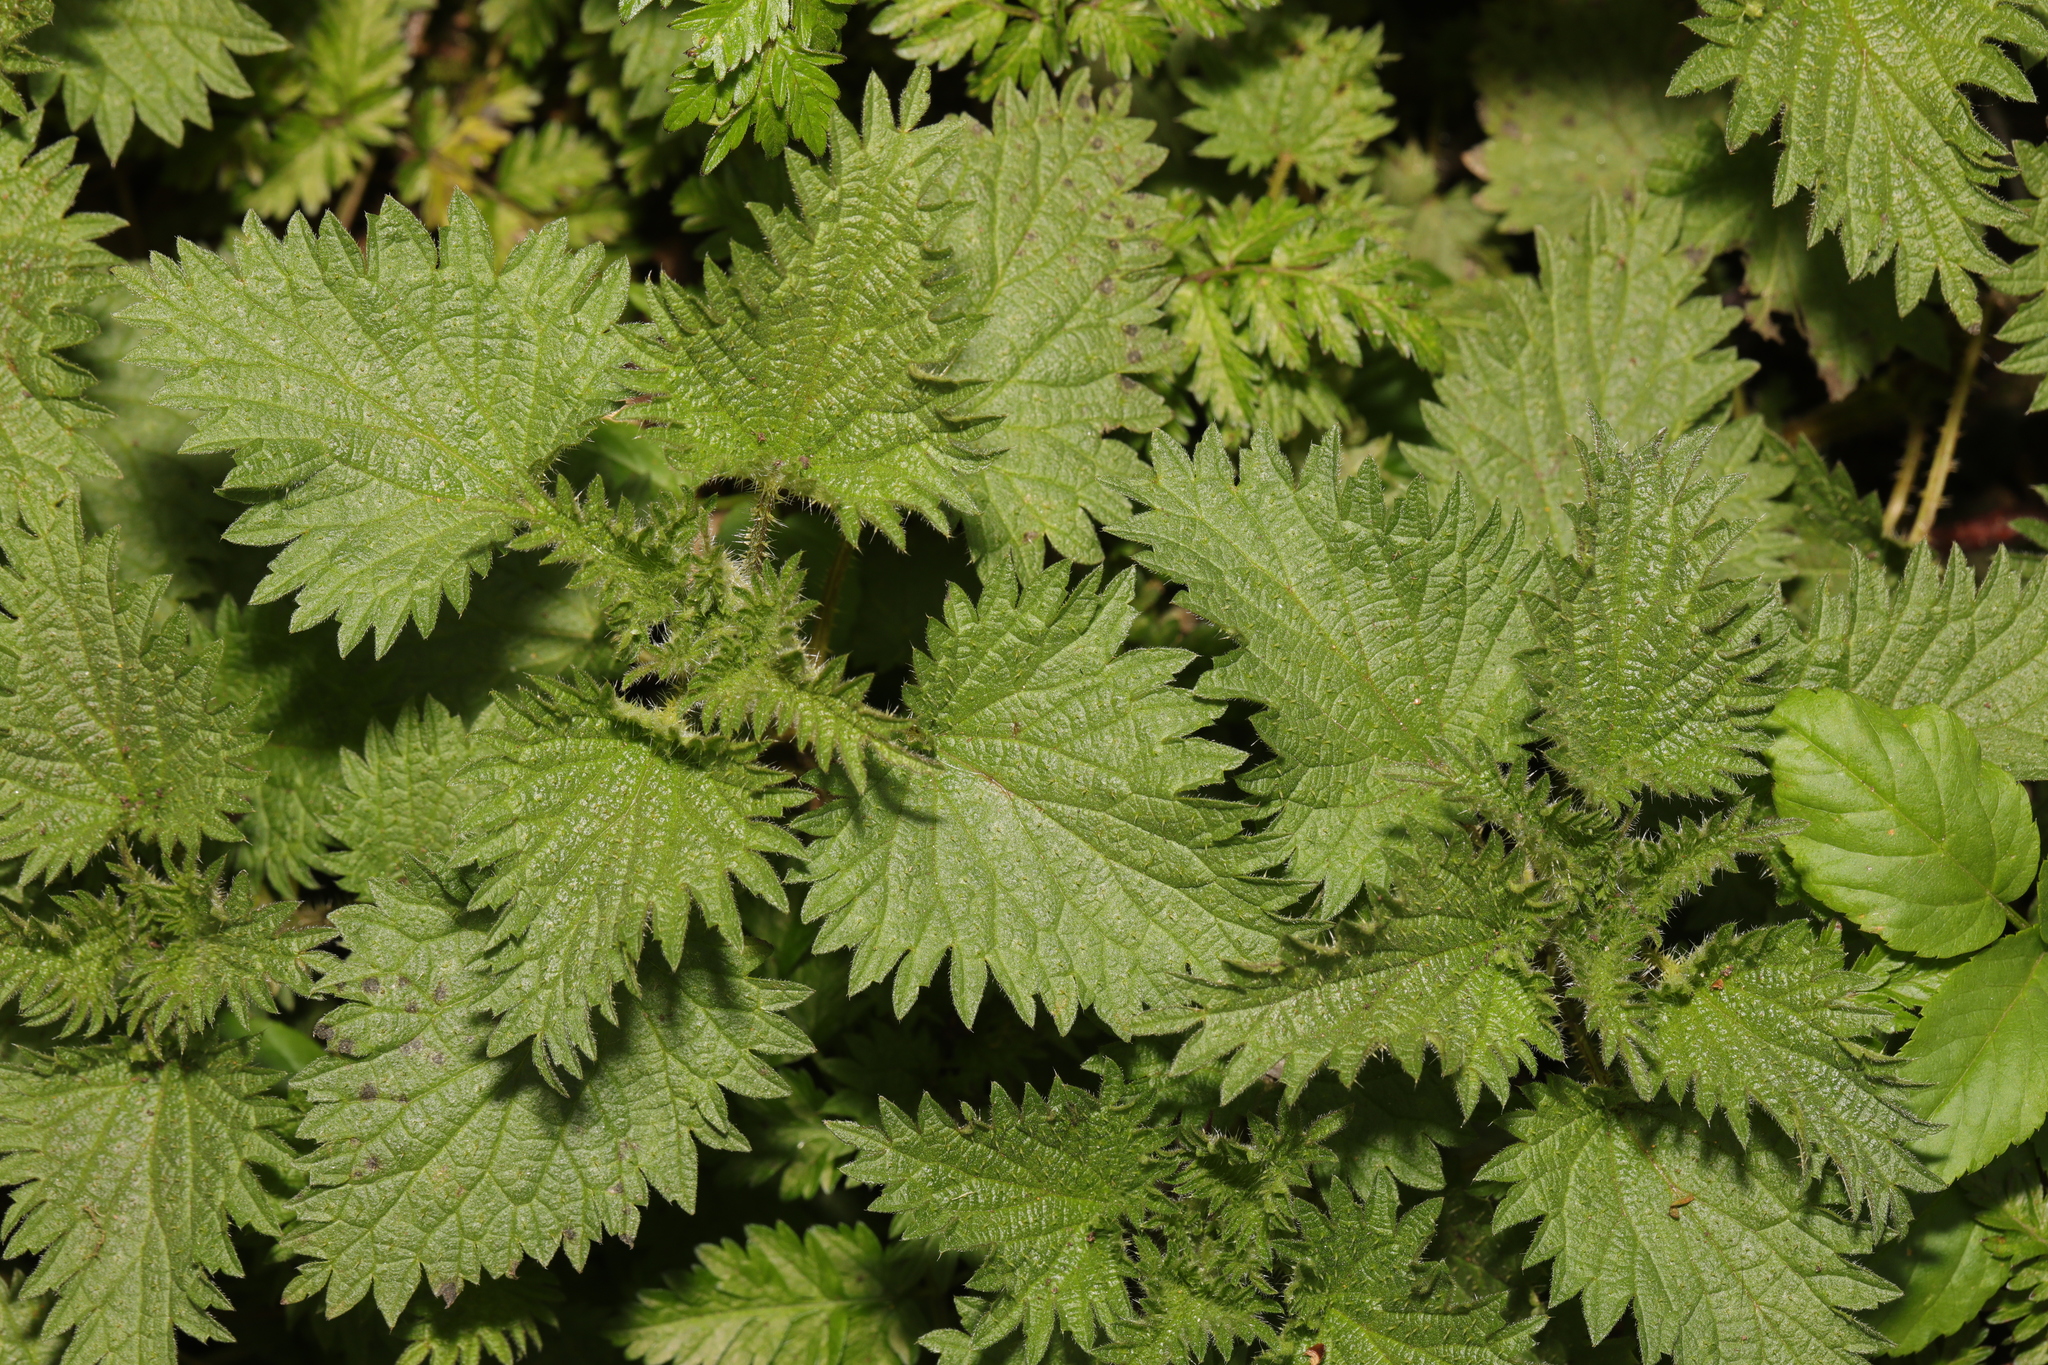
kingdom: Plantae
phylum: Tracheophyta
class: Magnoliopsida
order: Rosales
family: Urticaceae
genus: Urtica
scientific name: Urtica dioica
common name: Common nettle
